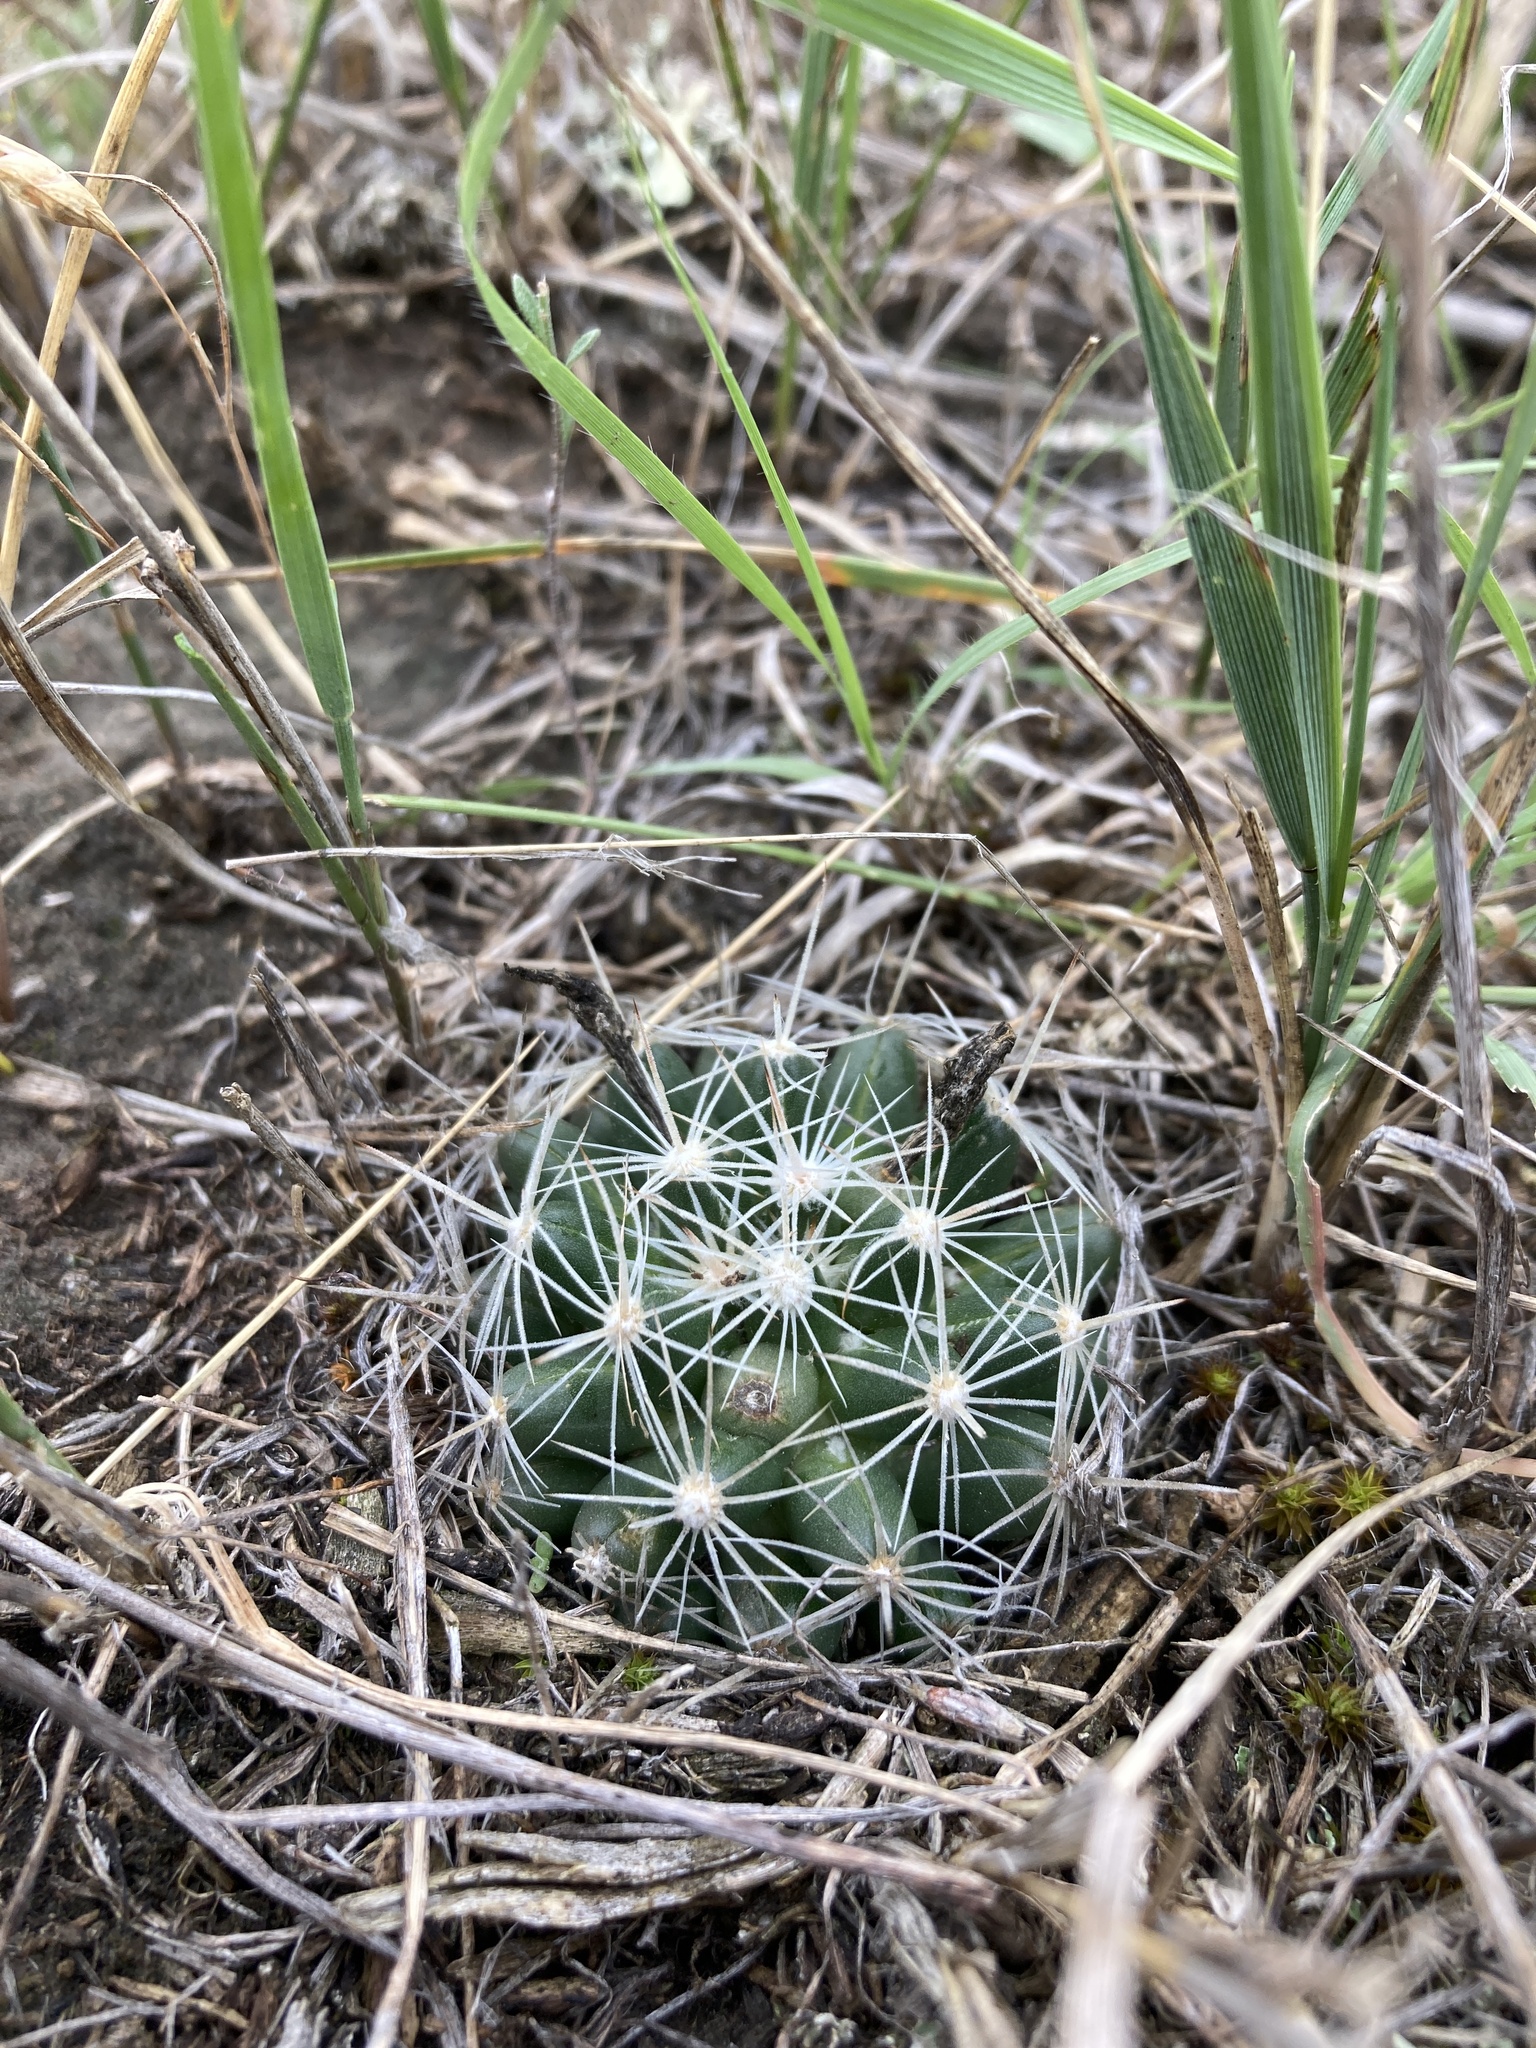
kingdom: Plantae
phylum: Tracheophyta
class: Magnoliopsida
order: Caryophyllales
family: Cactaceae
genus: Pelecyphora
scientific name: Pelecyphora missouriensis
